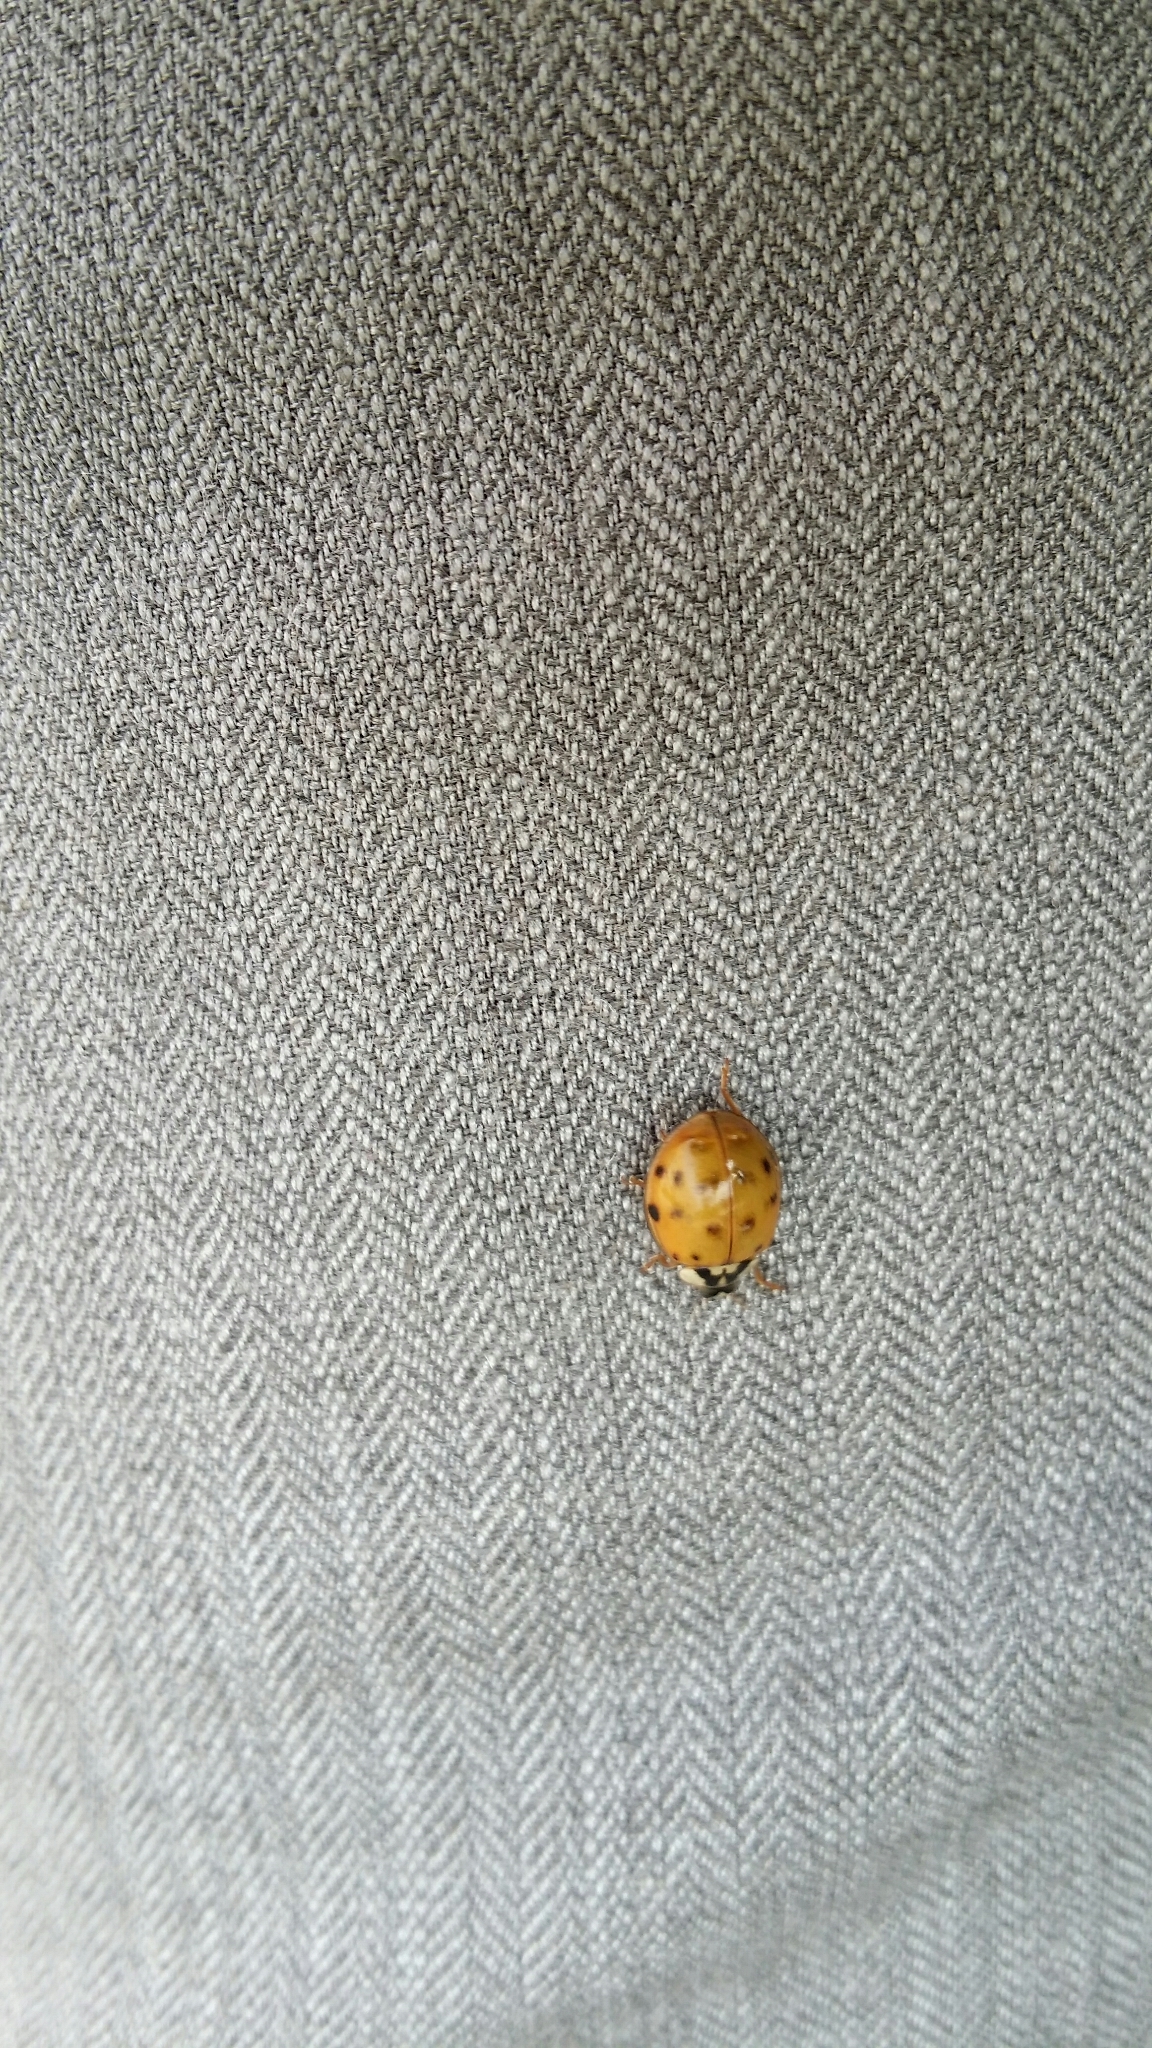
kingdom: Animalia
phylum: Arthropoda
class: Insecta
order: Coleoptera
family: Coccinellidae
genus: Harmonia
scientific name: Harmonia axyridis
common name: Harlequin ladybird
